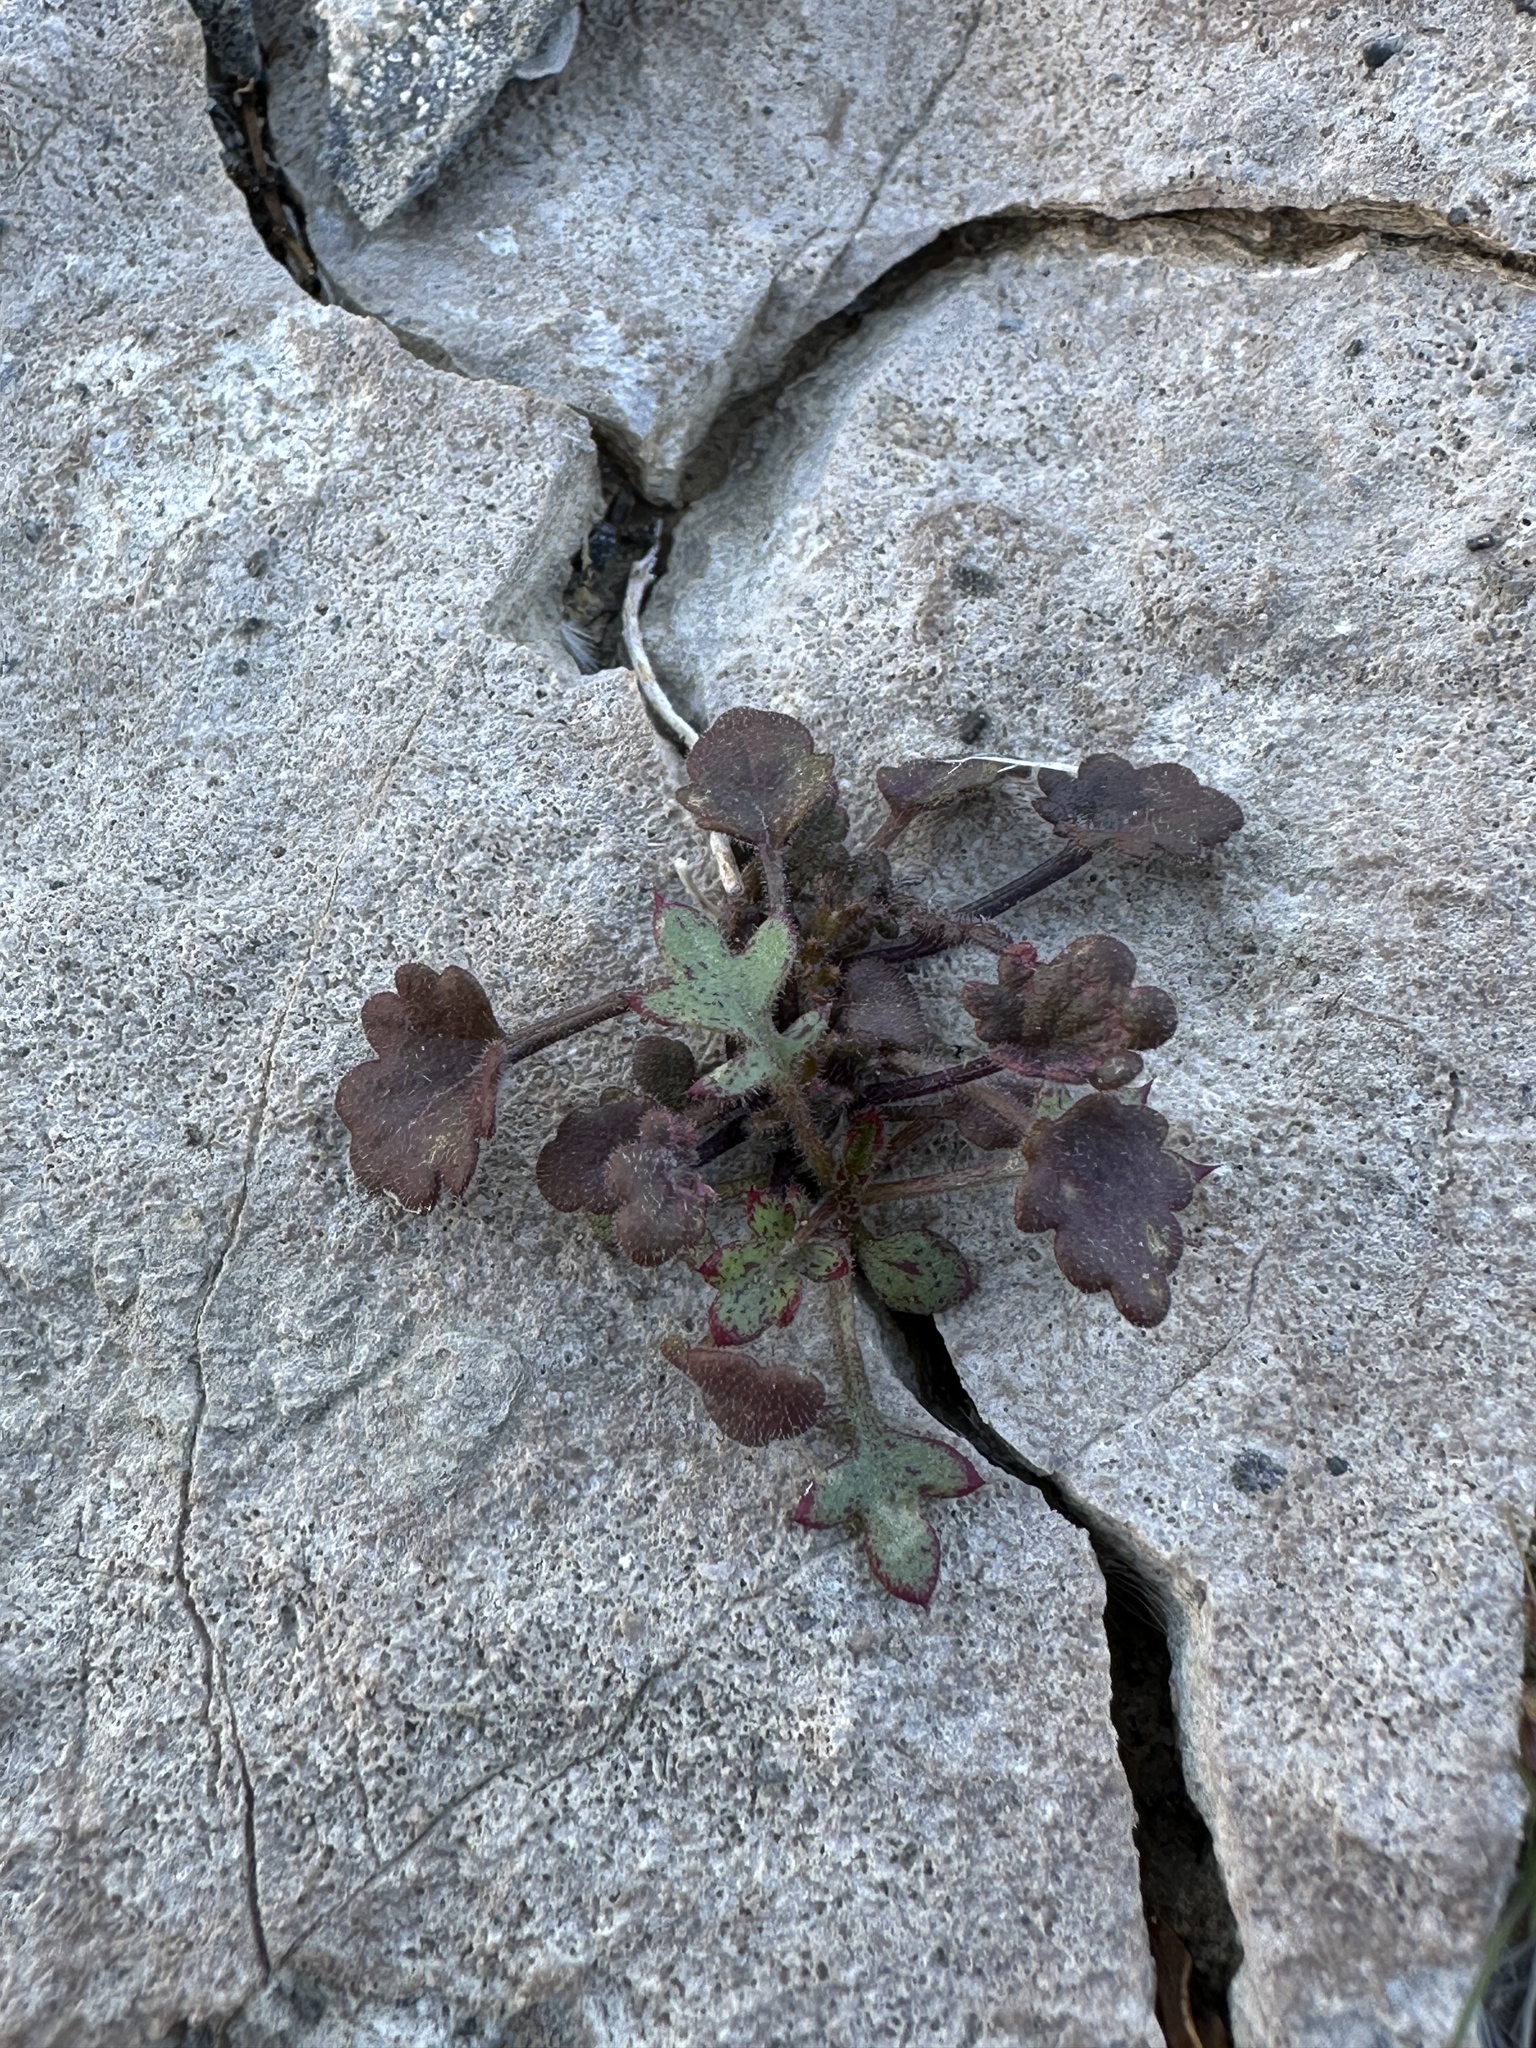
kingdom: Plantae
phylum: Tracheophyta
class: Magnoliopsida
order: Boraginales
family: Hydrophyllaceae
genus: Phacelia
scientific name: Phacelia rotundifolia
